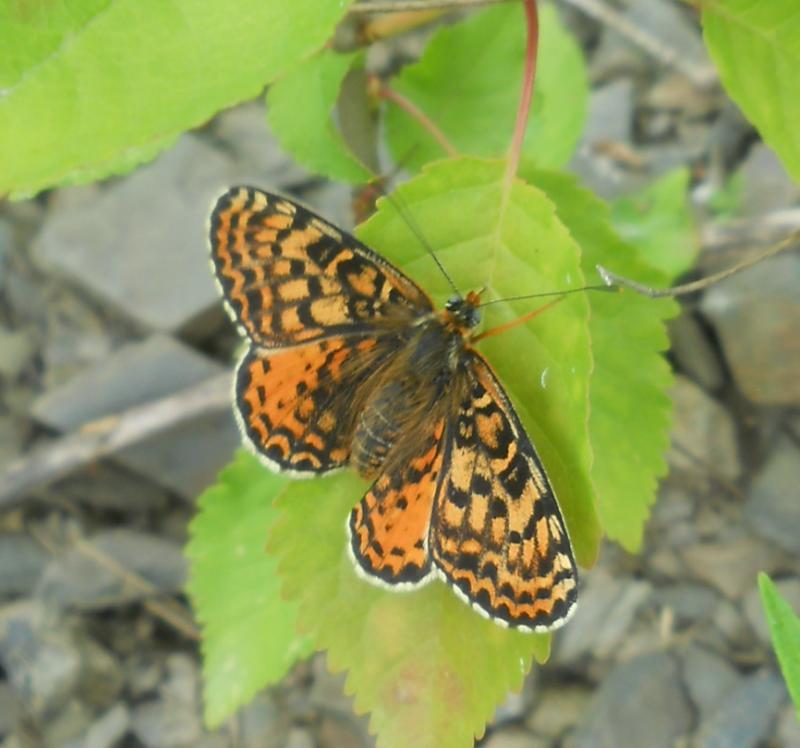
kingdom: Animalia
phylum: Arthropoda
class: Insecta
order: Lepidoptera
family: Nymphalidae
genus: Melitaea
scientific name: Melitaea didyma
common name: Spotted fritillary
